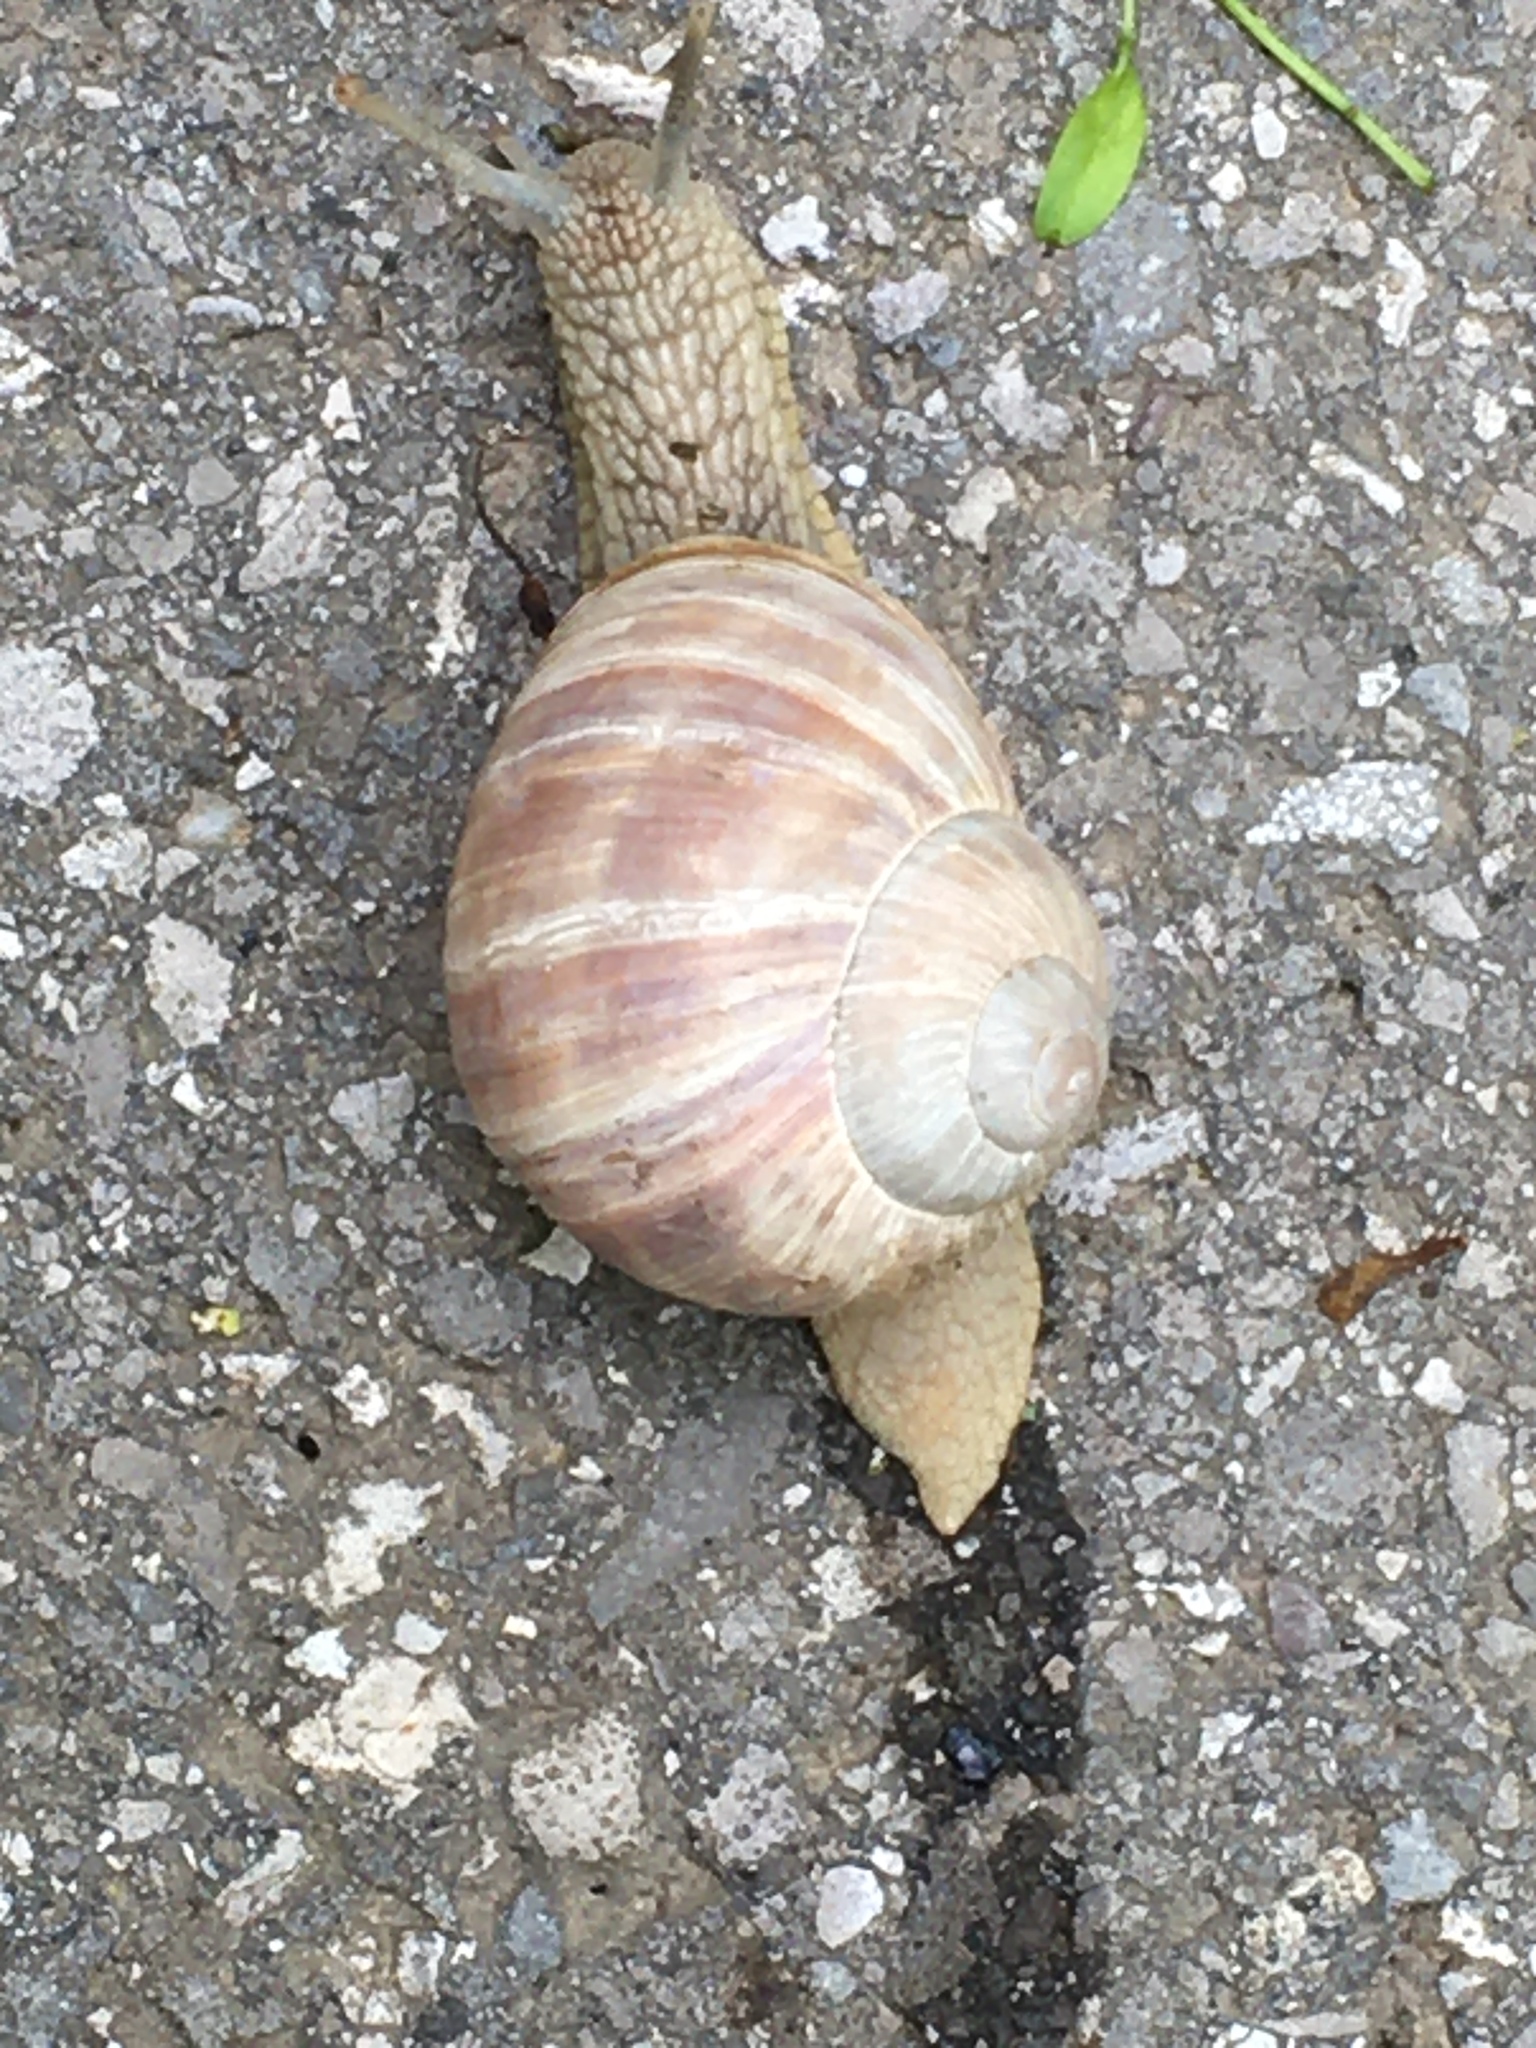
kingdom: Animalia
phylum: Mollusca
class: Gastropoda
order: Stylommatophora
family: Helicidae
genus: Helix
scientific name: Helix pomatia
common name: Roman snail
